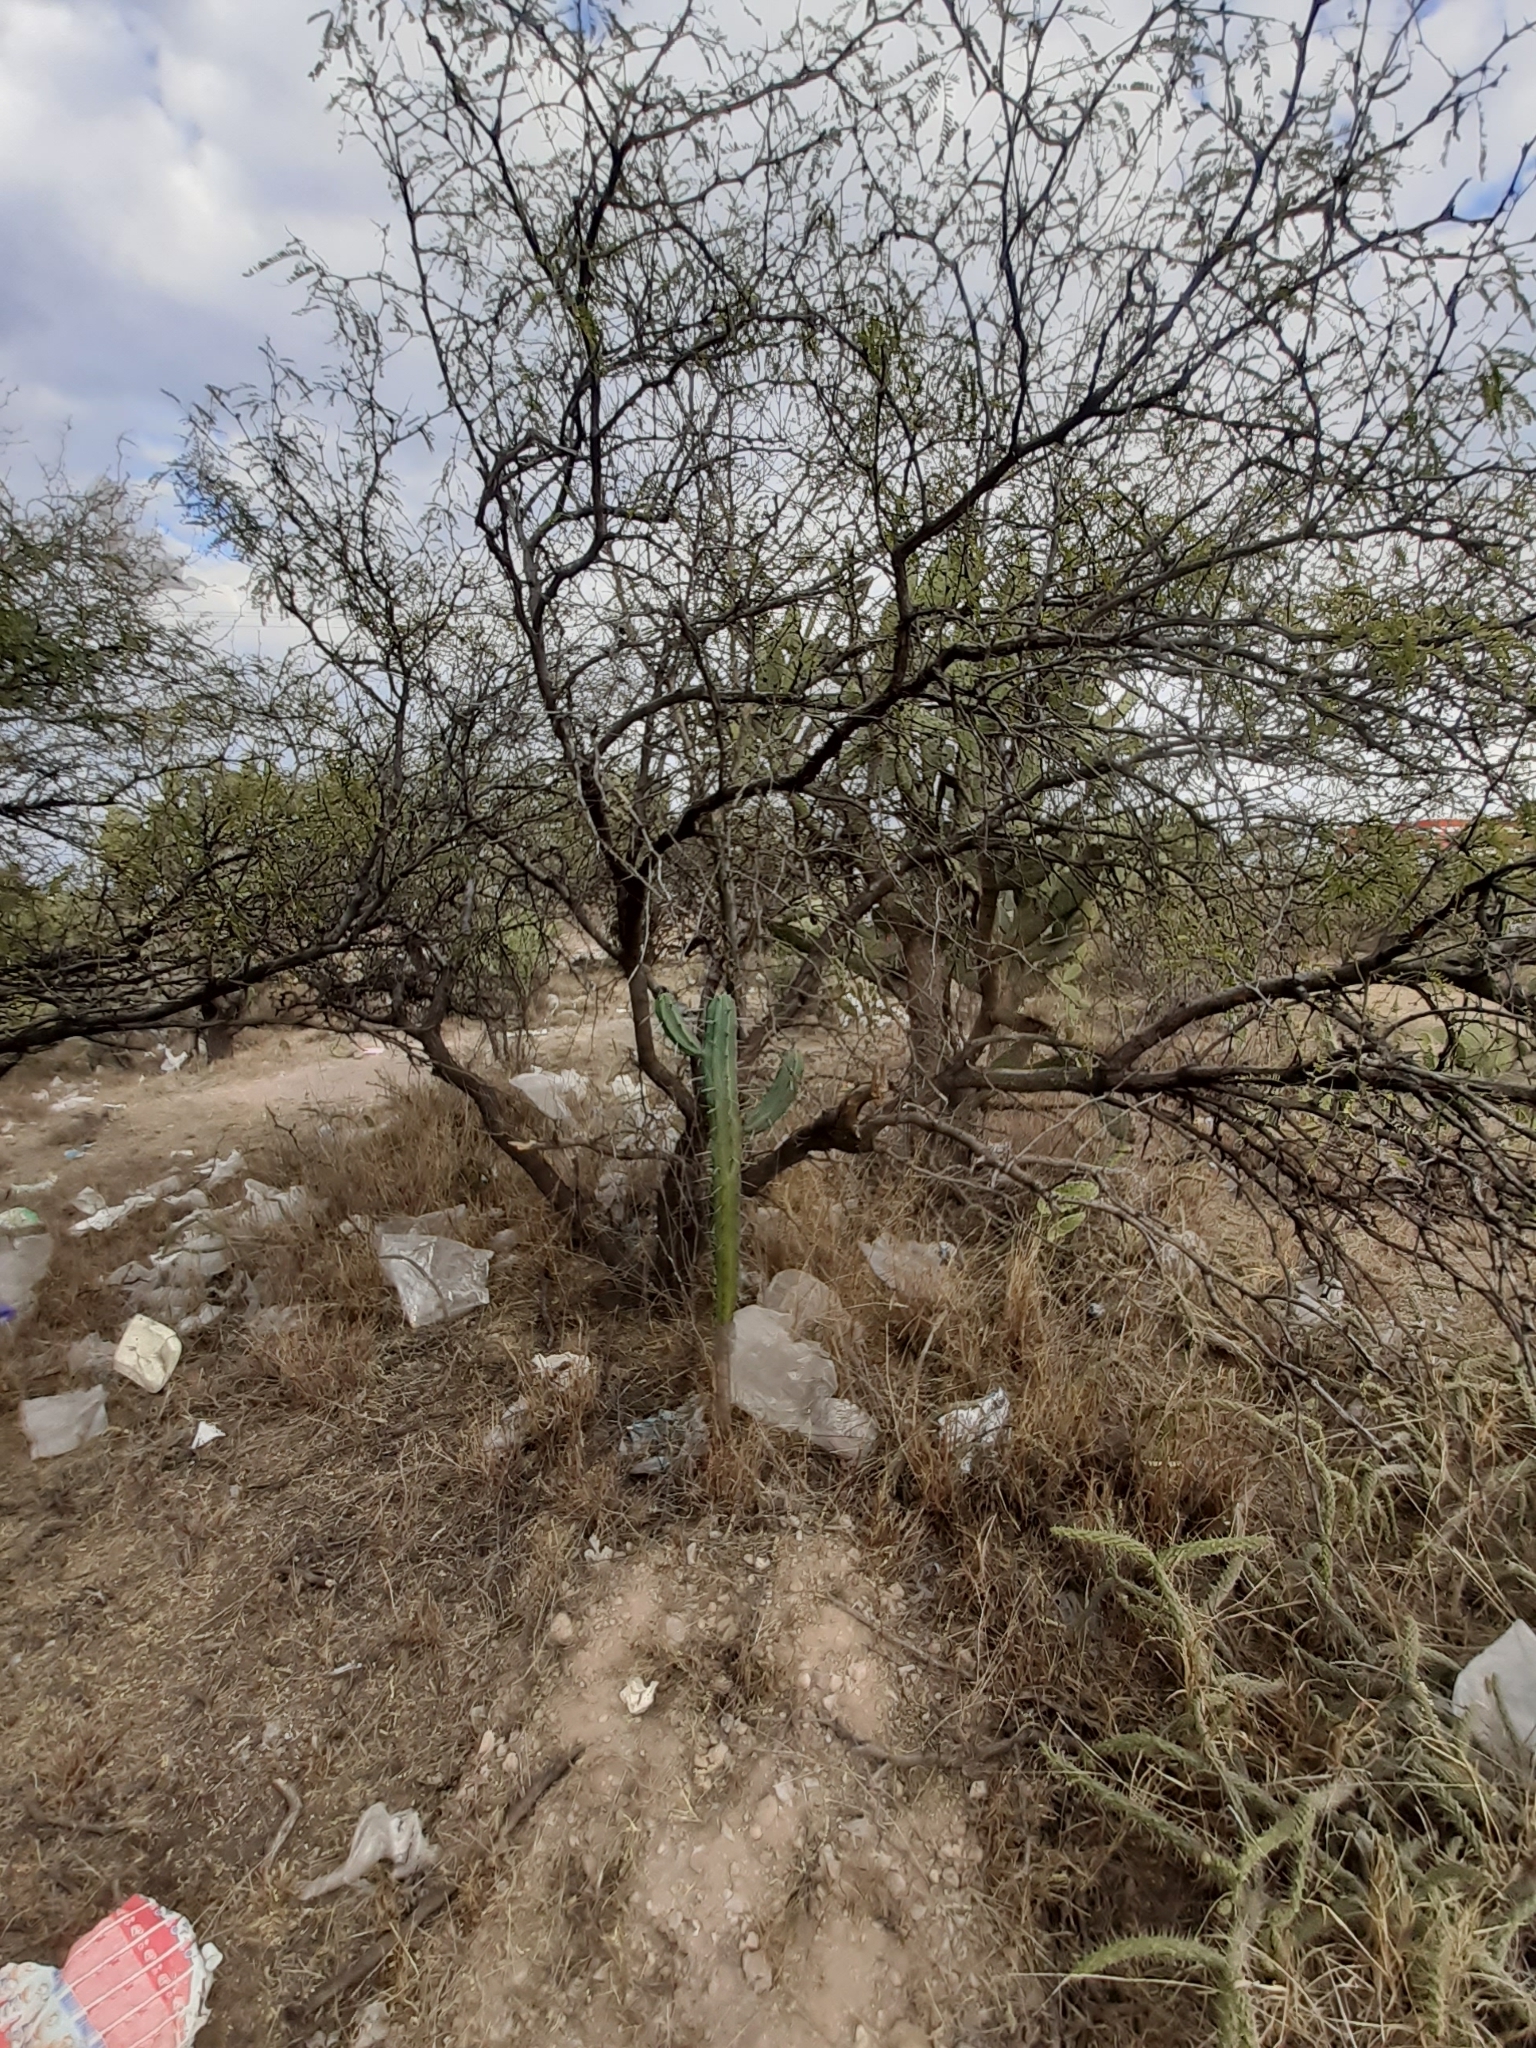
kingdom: Plantae
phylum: Tracheophyta
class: Magnoliopsida
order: Caryophyllales
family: Cactaceae
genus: Opuntia
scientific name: Opuntia pubescens
